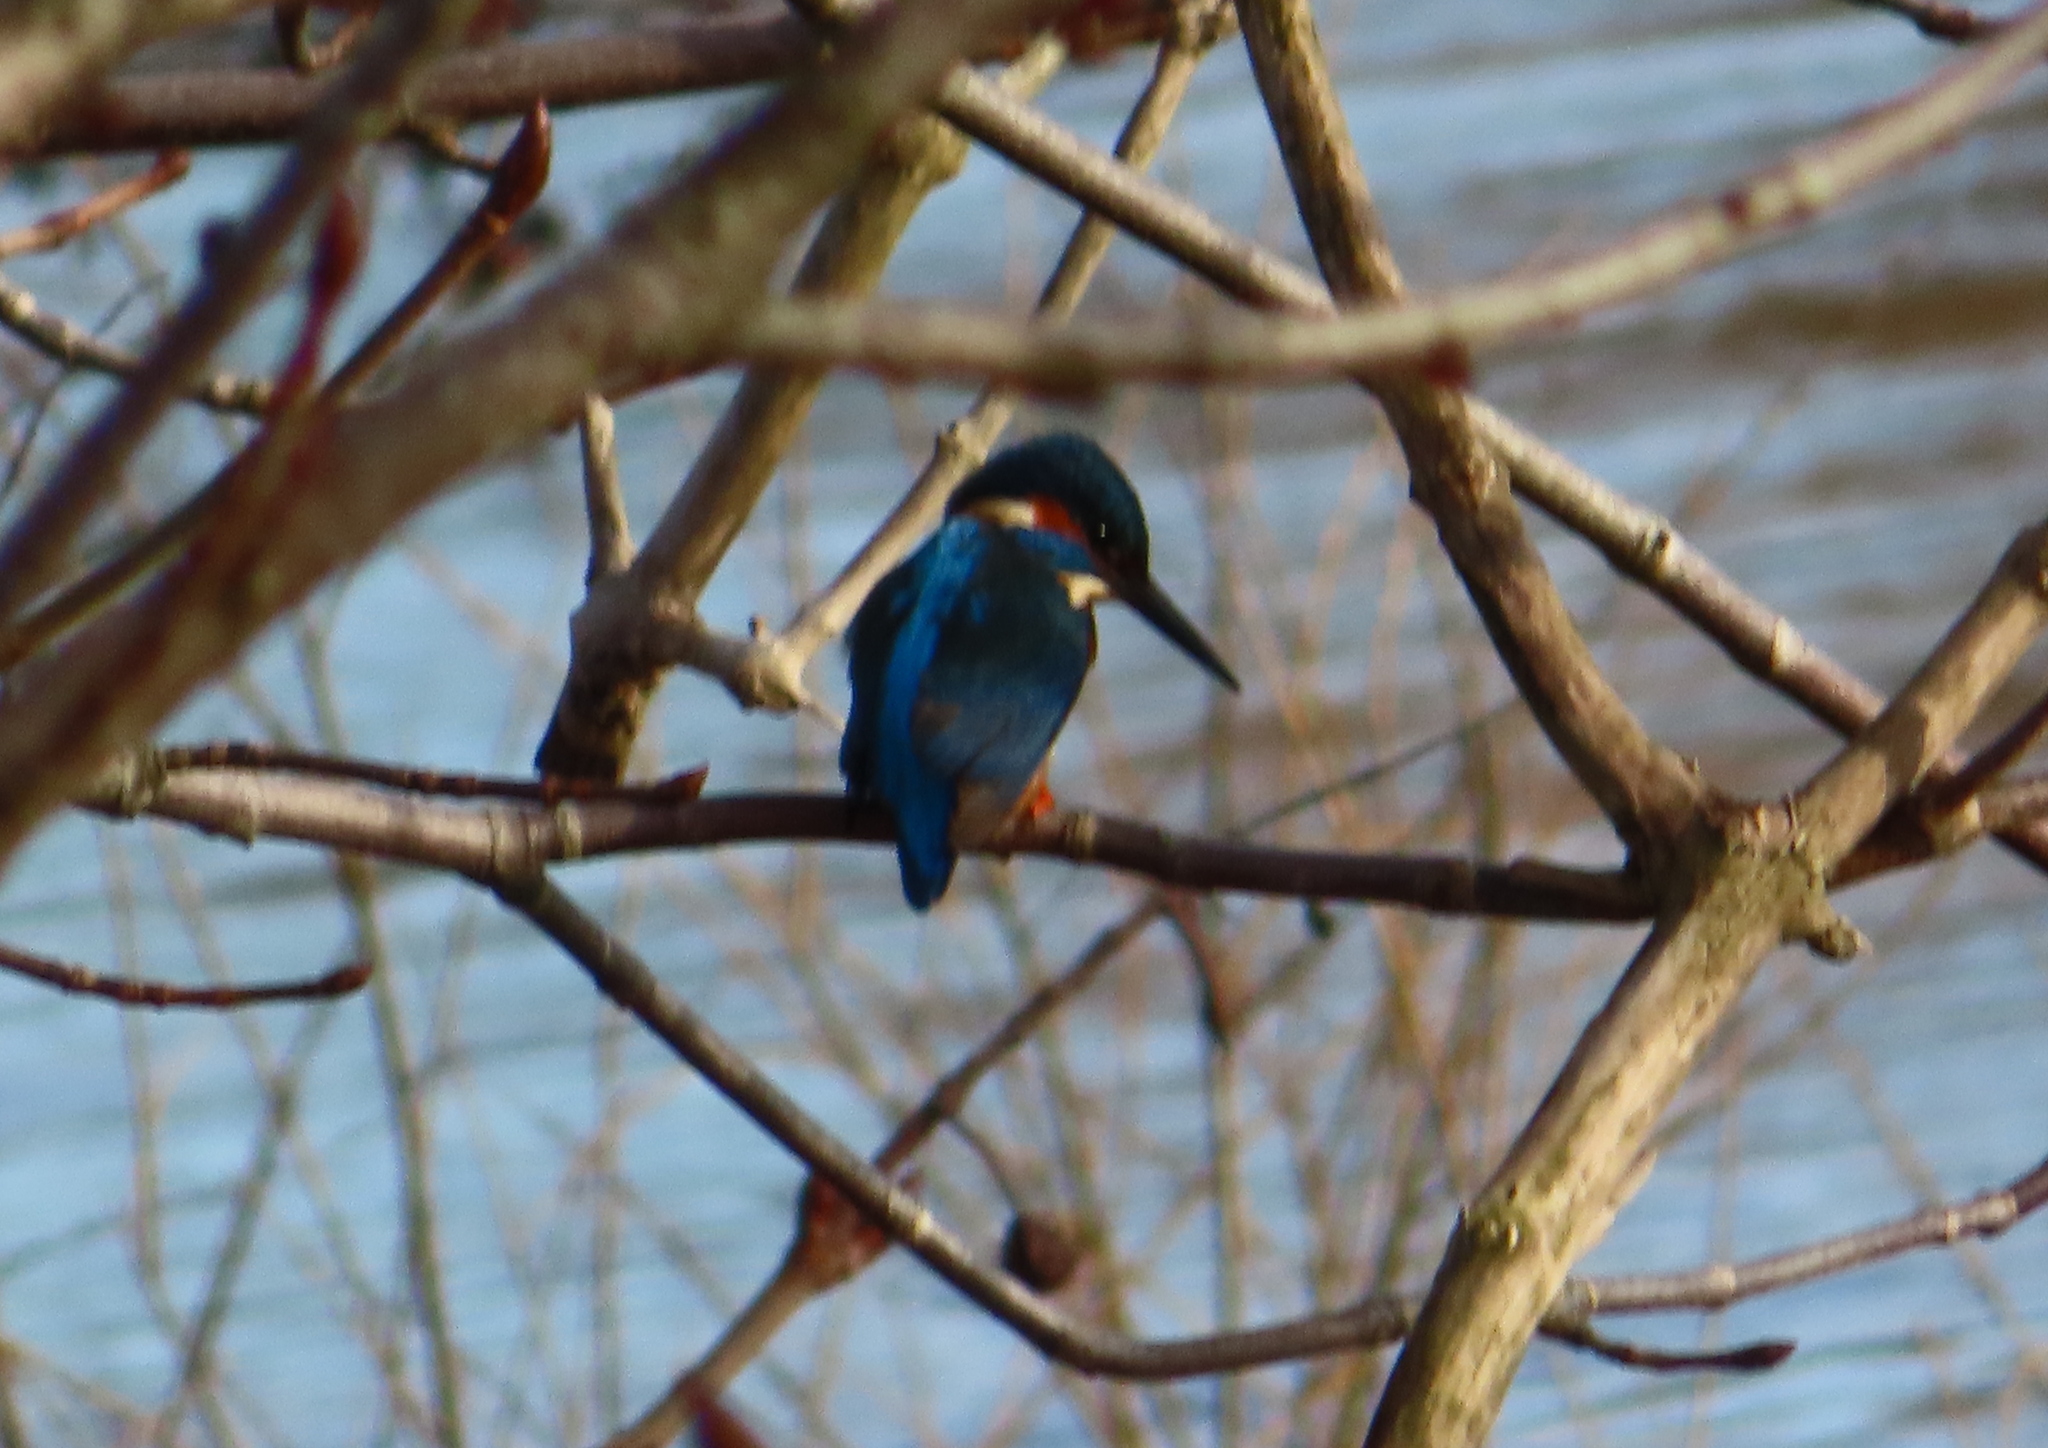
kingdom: Animalia
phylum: Chordata
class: Aves
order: Coraciiformes
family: Alcedinidae
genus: Alcedo
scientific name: Alcedo atthis
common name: Common kingfisher
